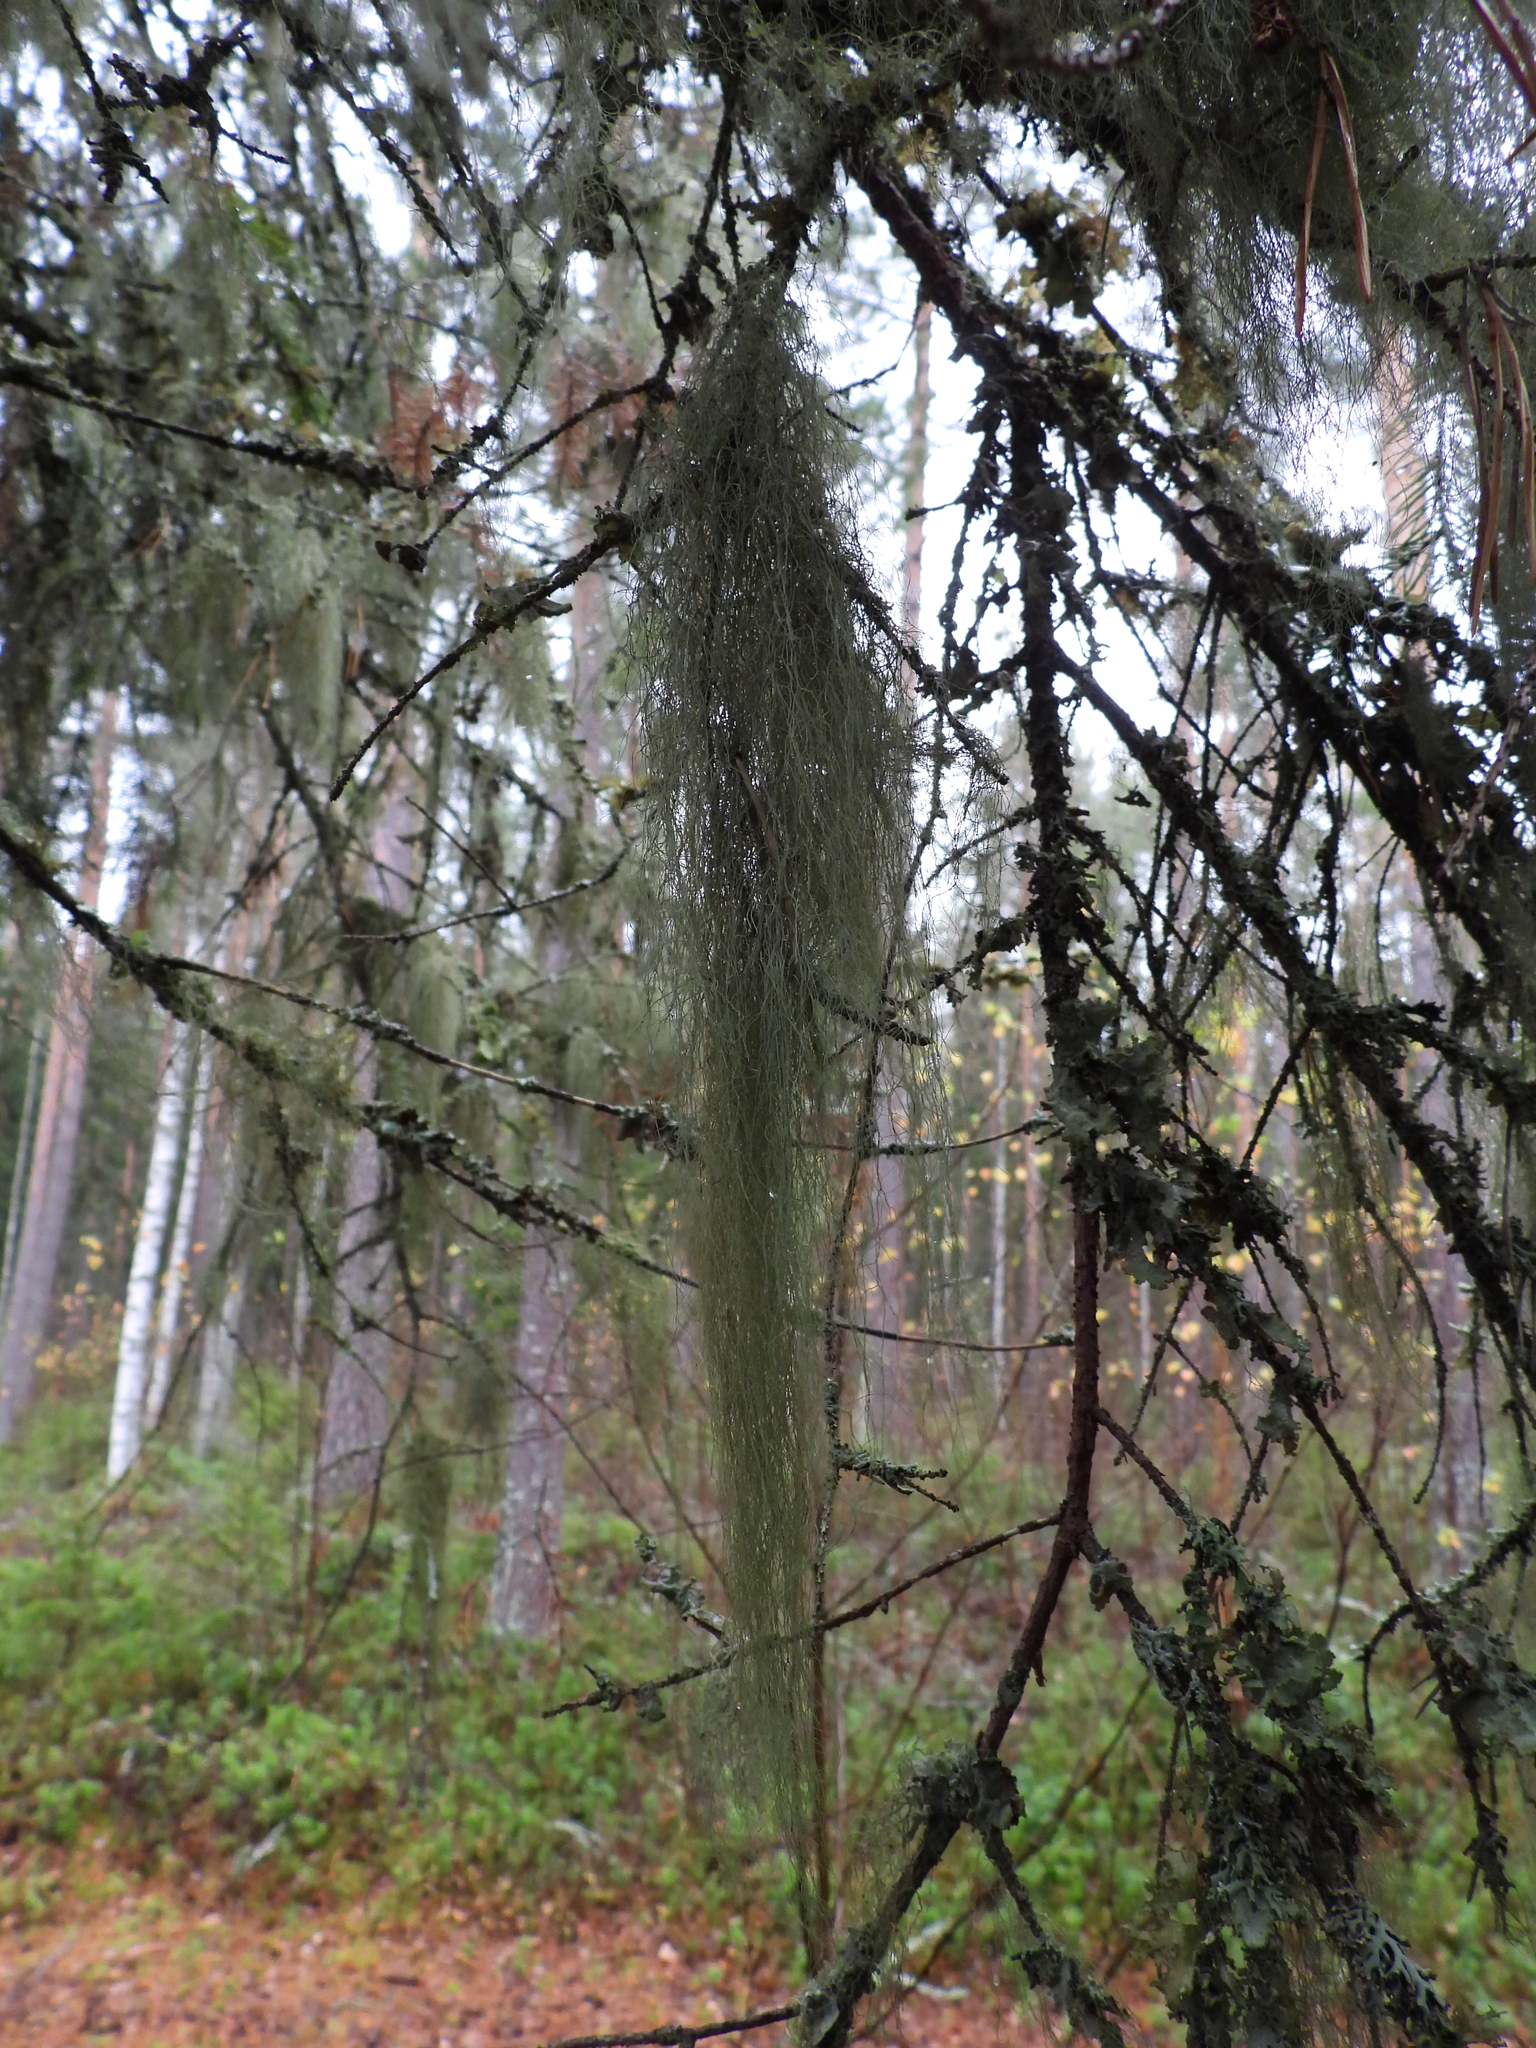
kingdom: Fungi
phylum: Ascomycota
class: Lecanoromycetes
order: Lecanorales
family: Parmeliaceae
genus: Bryoria
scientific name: Bryoria fuscescens
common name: Pale-footed horsehair lichen
